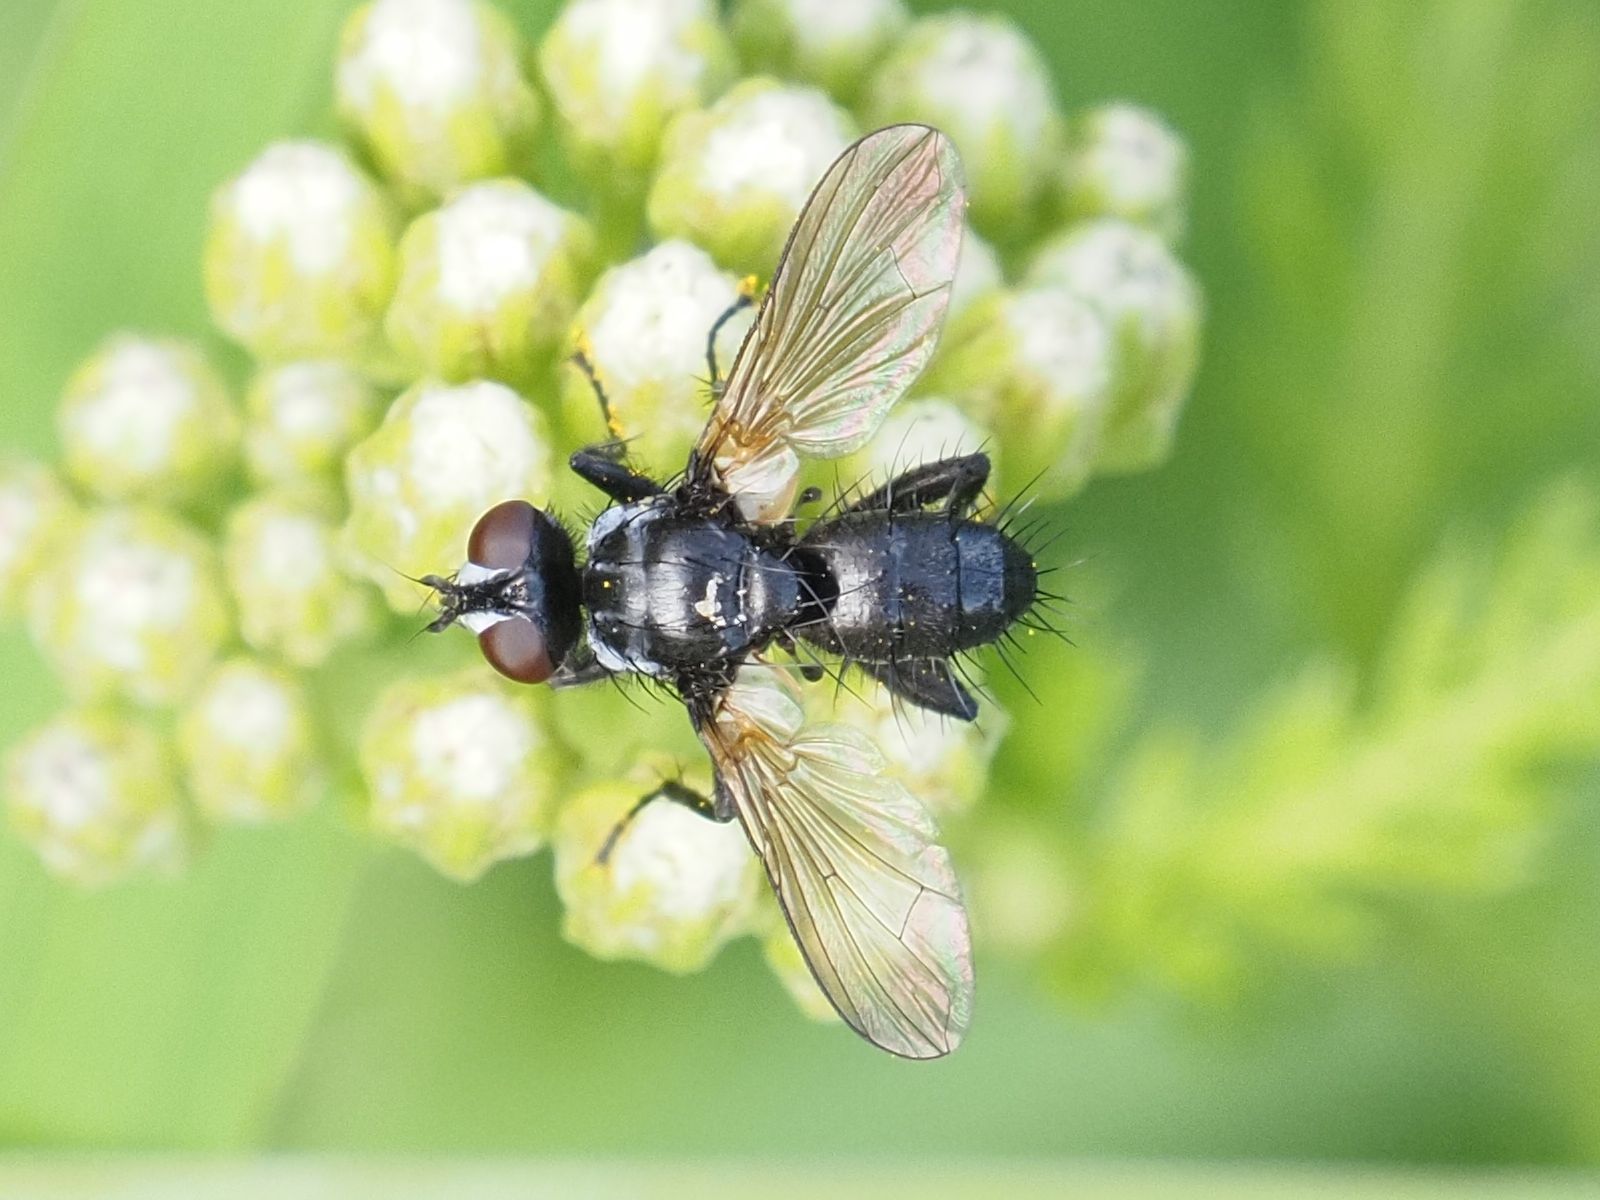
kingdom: Animalia
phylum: Arthropoda
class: Insecta
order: Diptera
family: Tachinidae
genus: Phania
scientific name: Phania funesta
